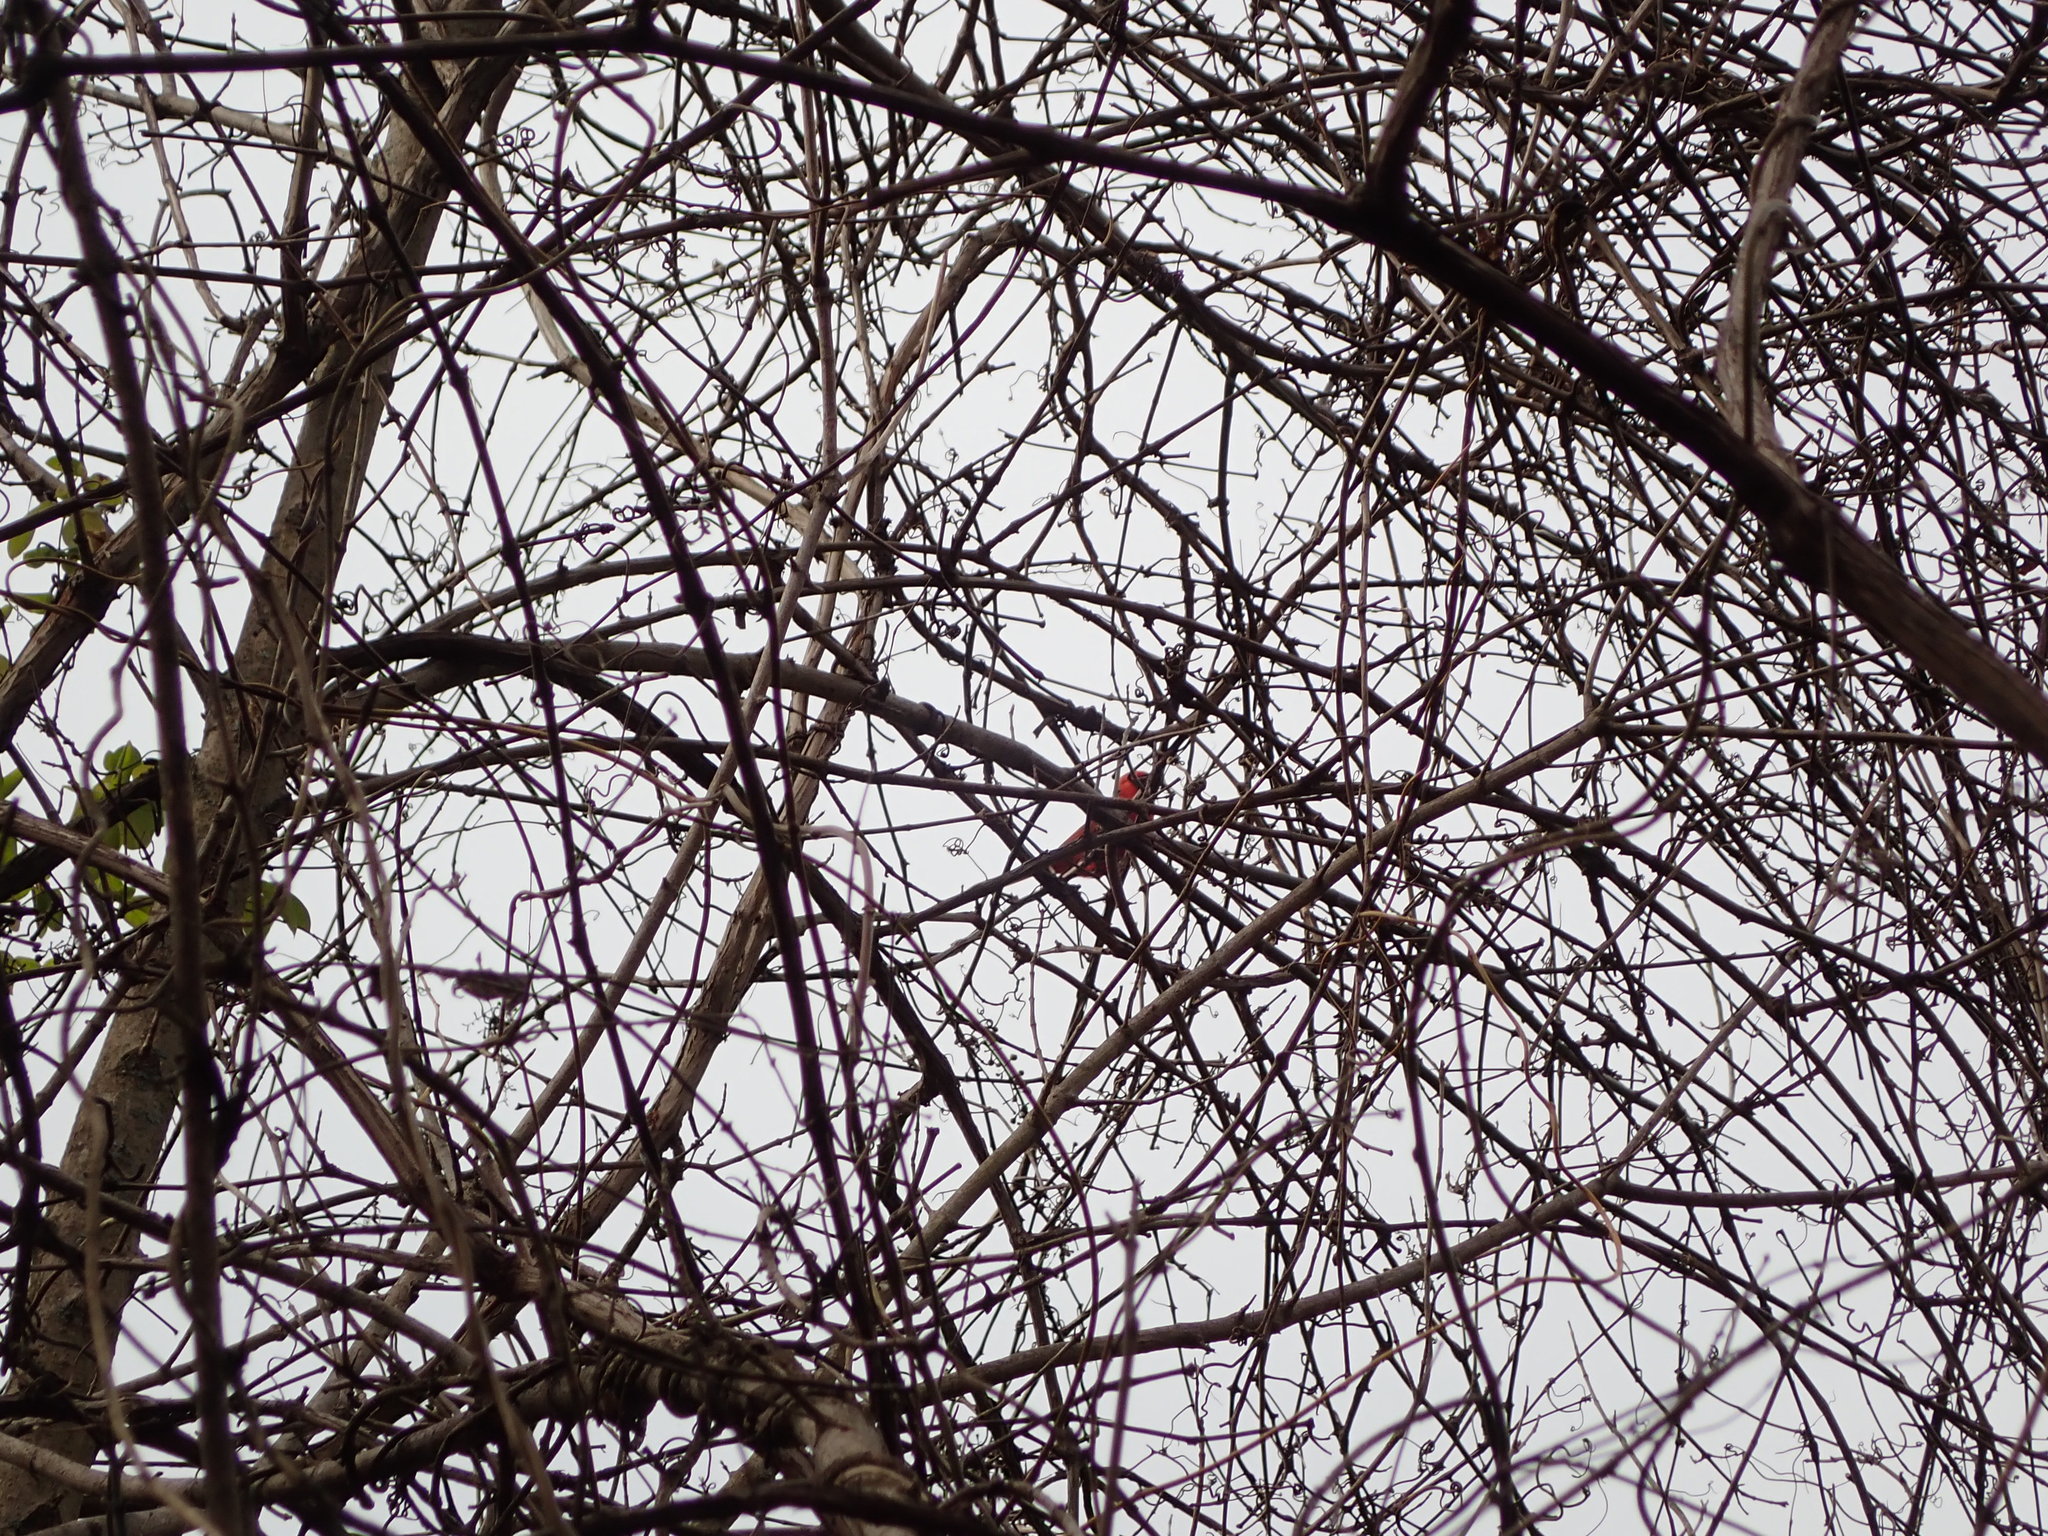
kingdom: Animalia
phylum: Chordata
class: Aves
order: Passeriformes
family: Cardinalidae
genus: Cardinalis
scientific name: Cardinalis cardinalis
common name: Northern cardinal
